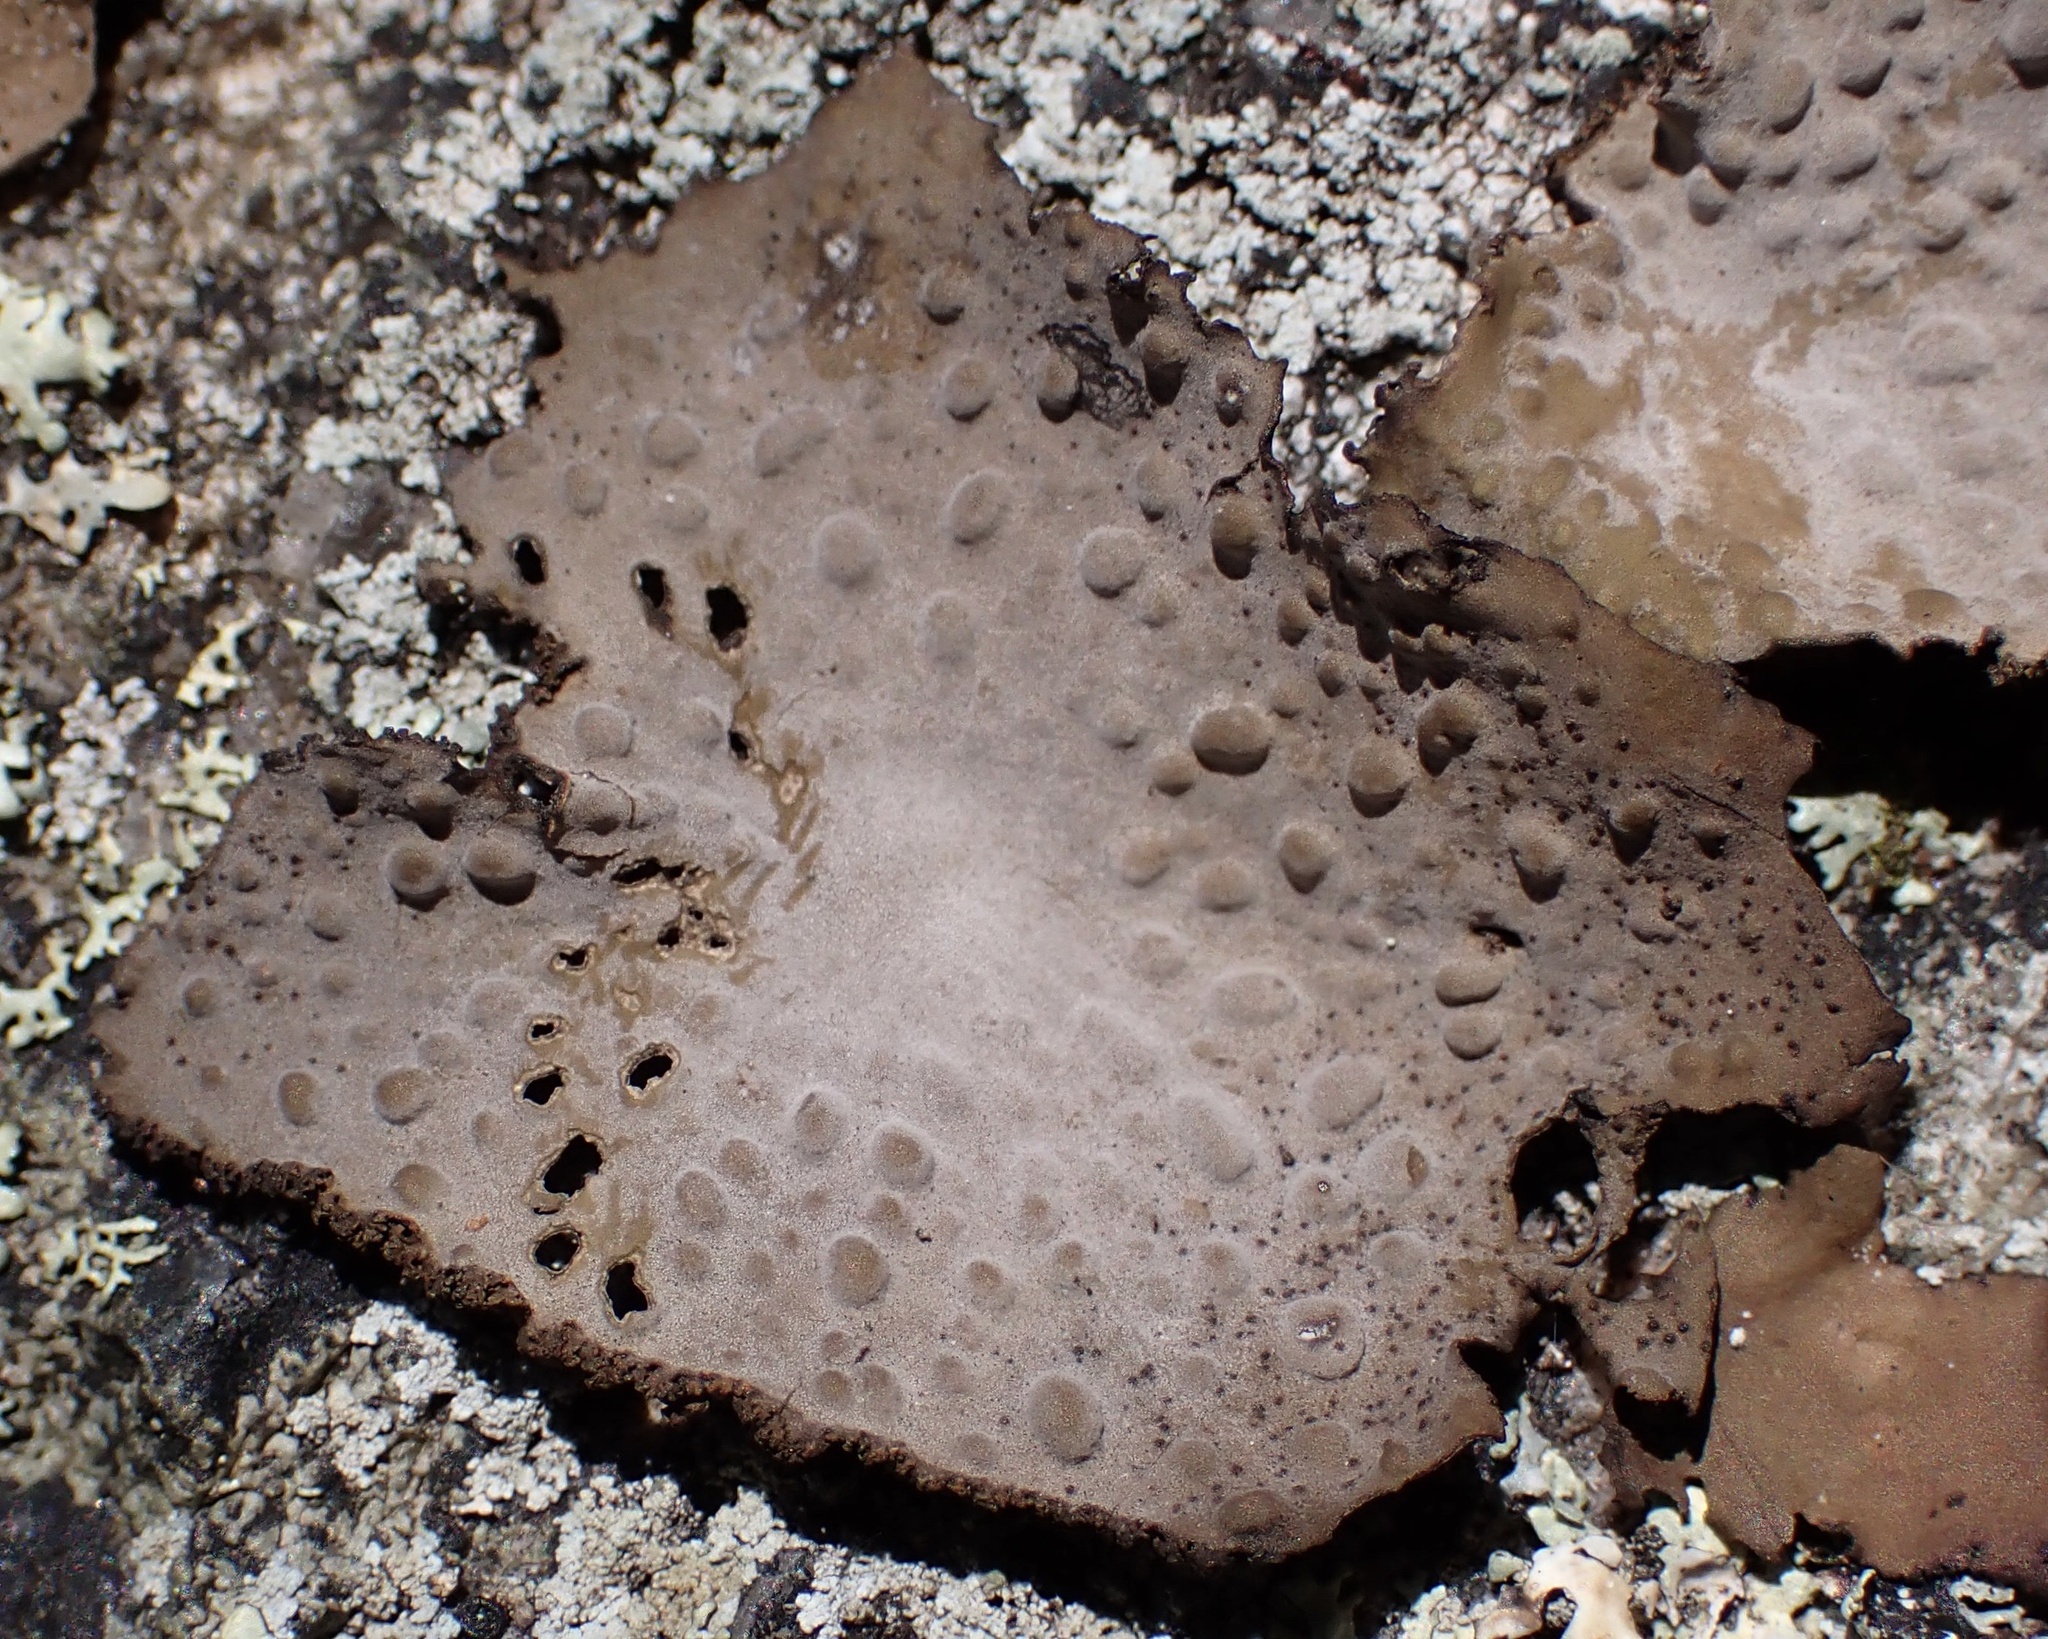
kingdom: Fungi
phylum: Ascomycota
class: Lecanoromycetes
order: Umbilicariales
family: Umbilicariaceae
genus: Lasallia
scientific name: Lasallia papulosa
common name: Common toadskin lichen
